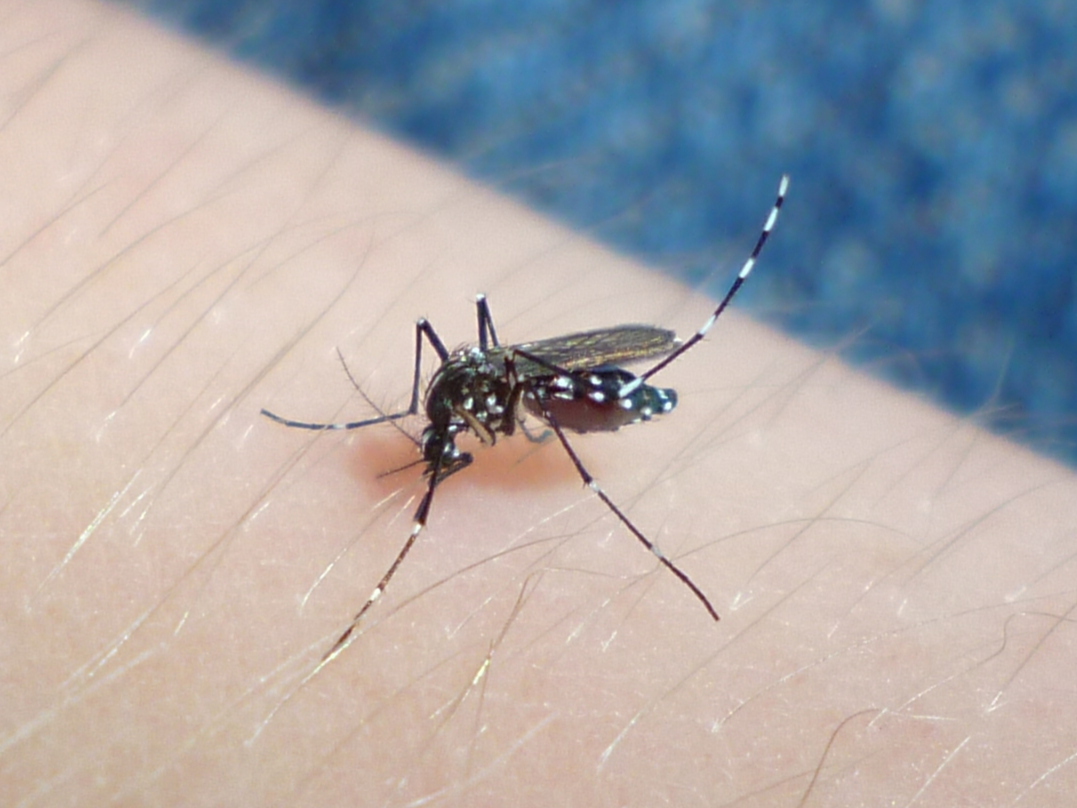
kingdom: Animalia
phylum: Arthropoda
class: Insecta
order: Diptera
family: Culicidae
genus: Aedes
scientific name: Aedes albopictus
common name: Tiger mosquito
